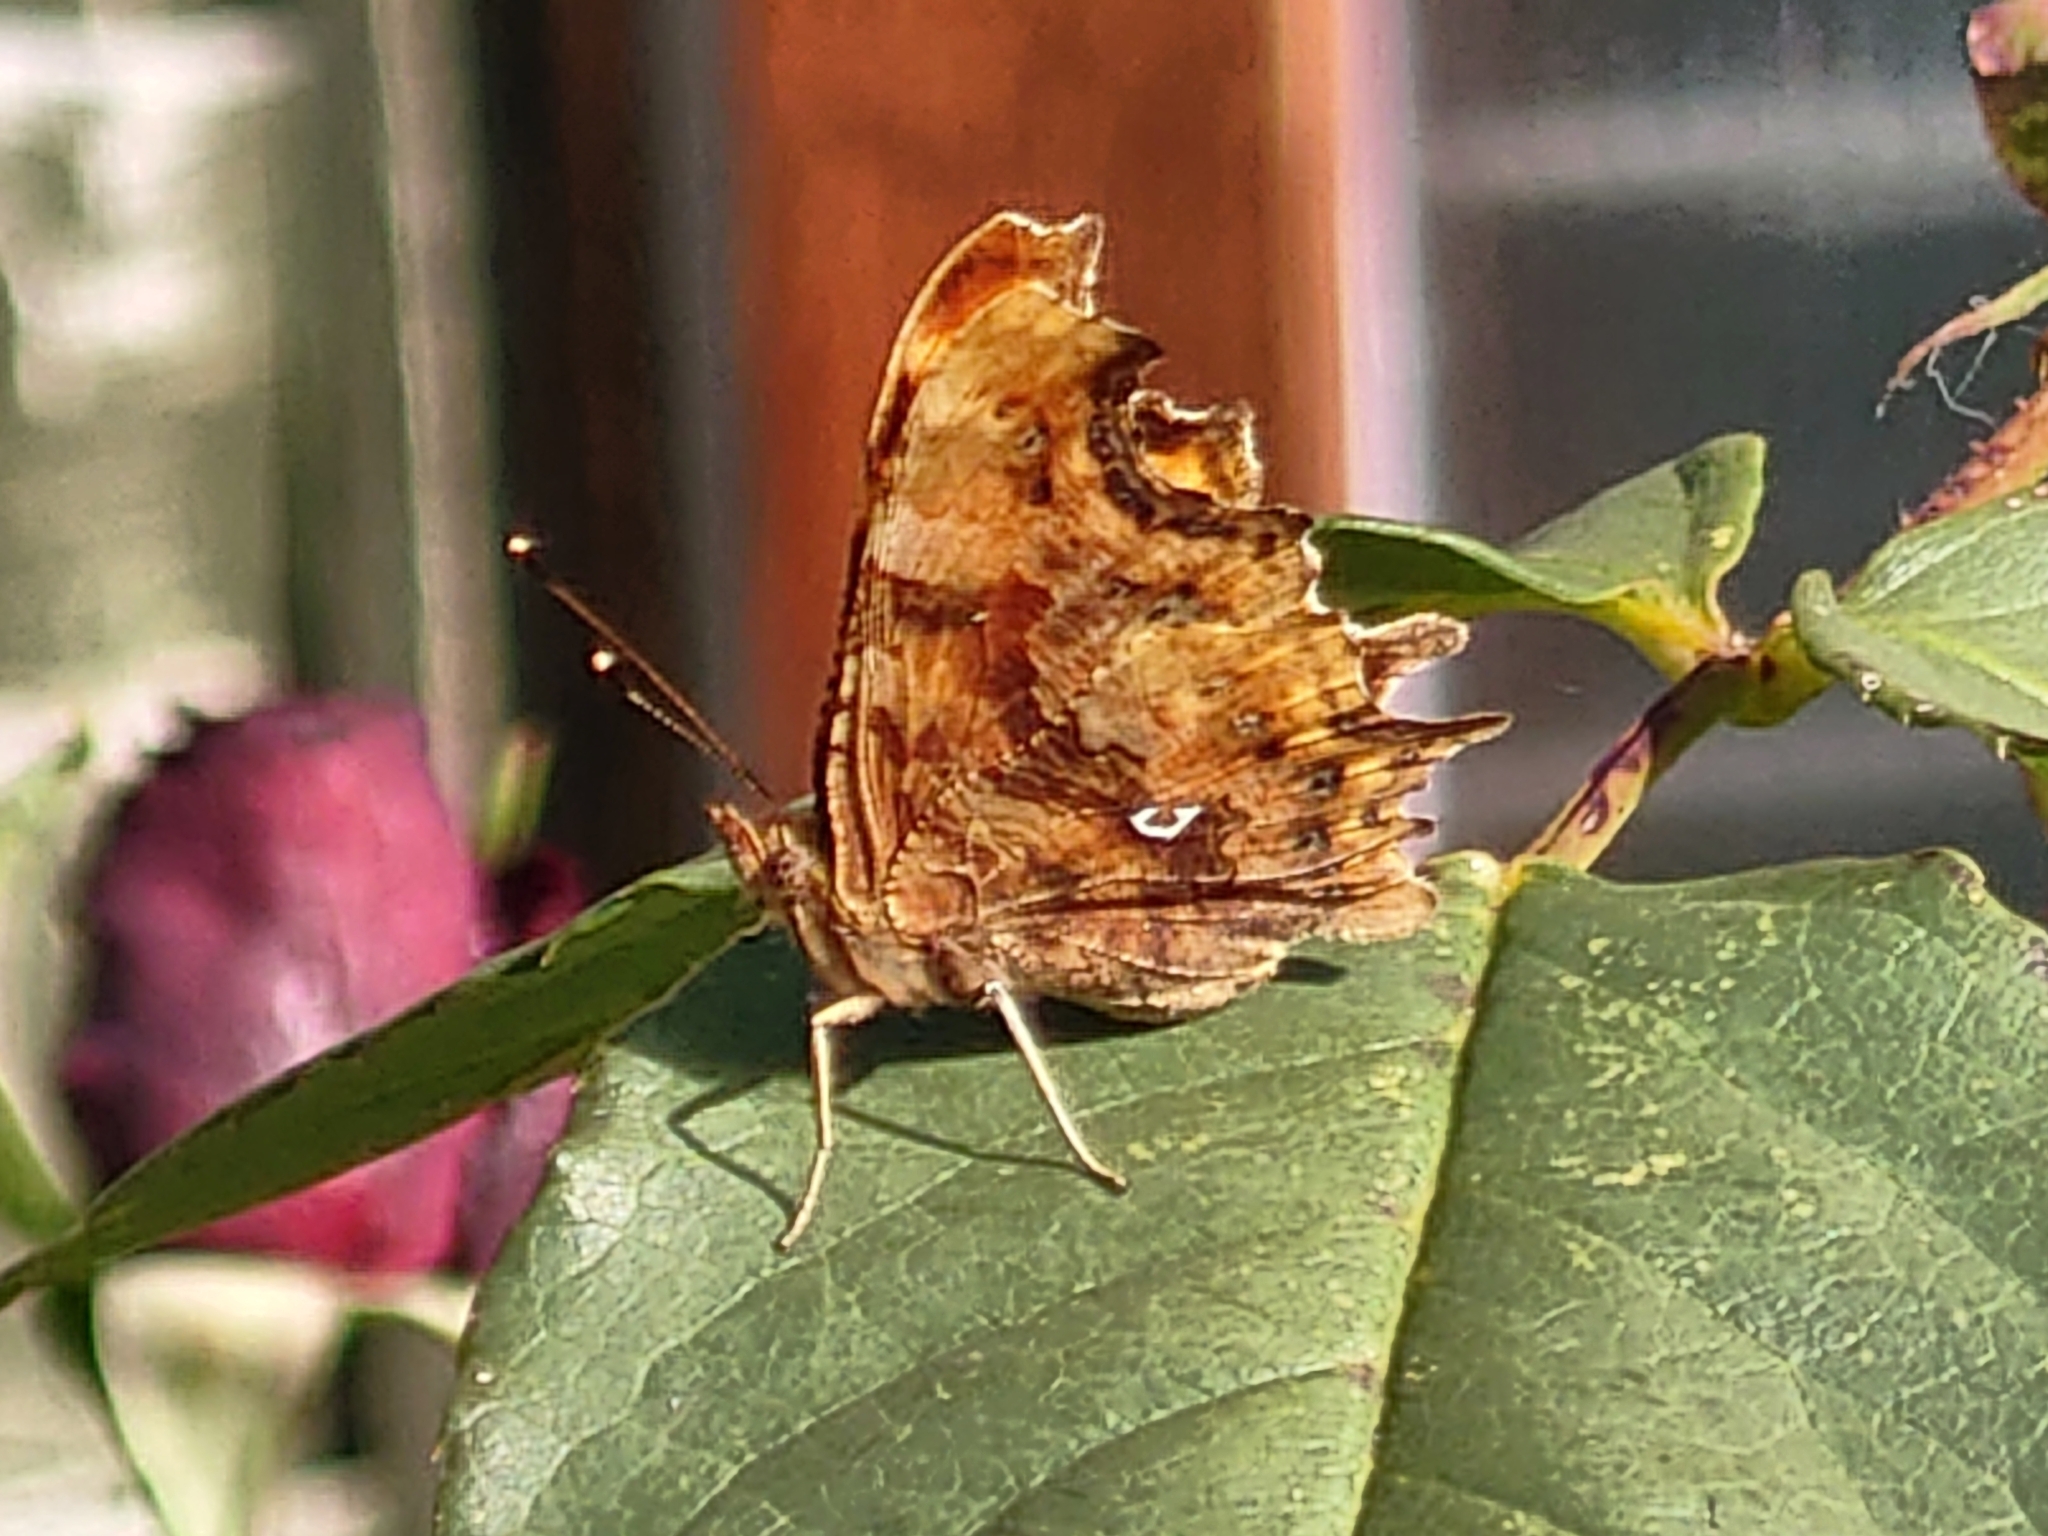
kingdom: Animalia
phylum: Arthropoda
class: Insecta
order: Lepidoptera
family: Nymphalidae
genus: Polygonia
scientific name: Polygonia c-album
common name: Comma
